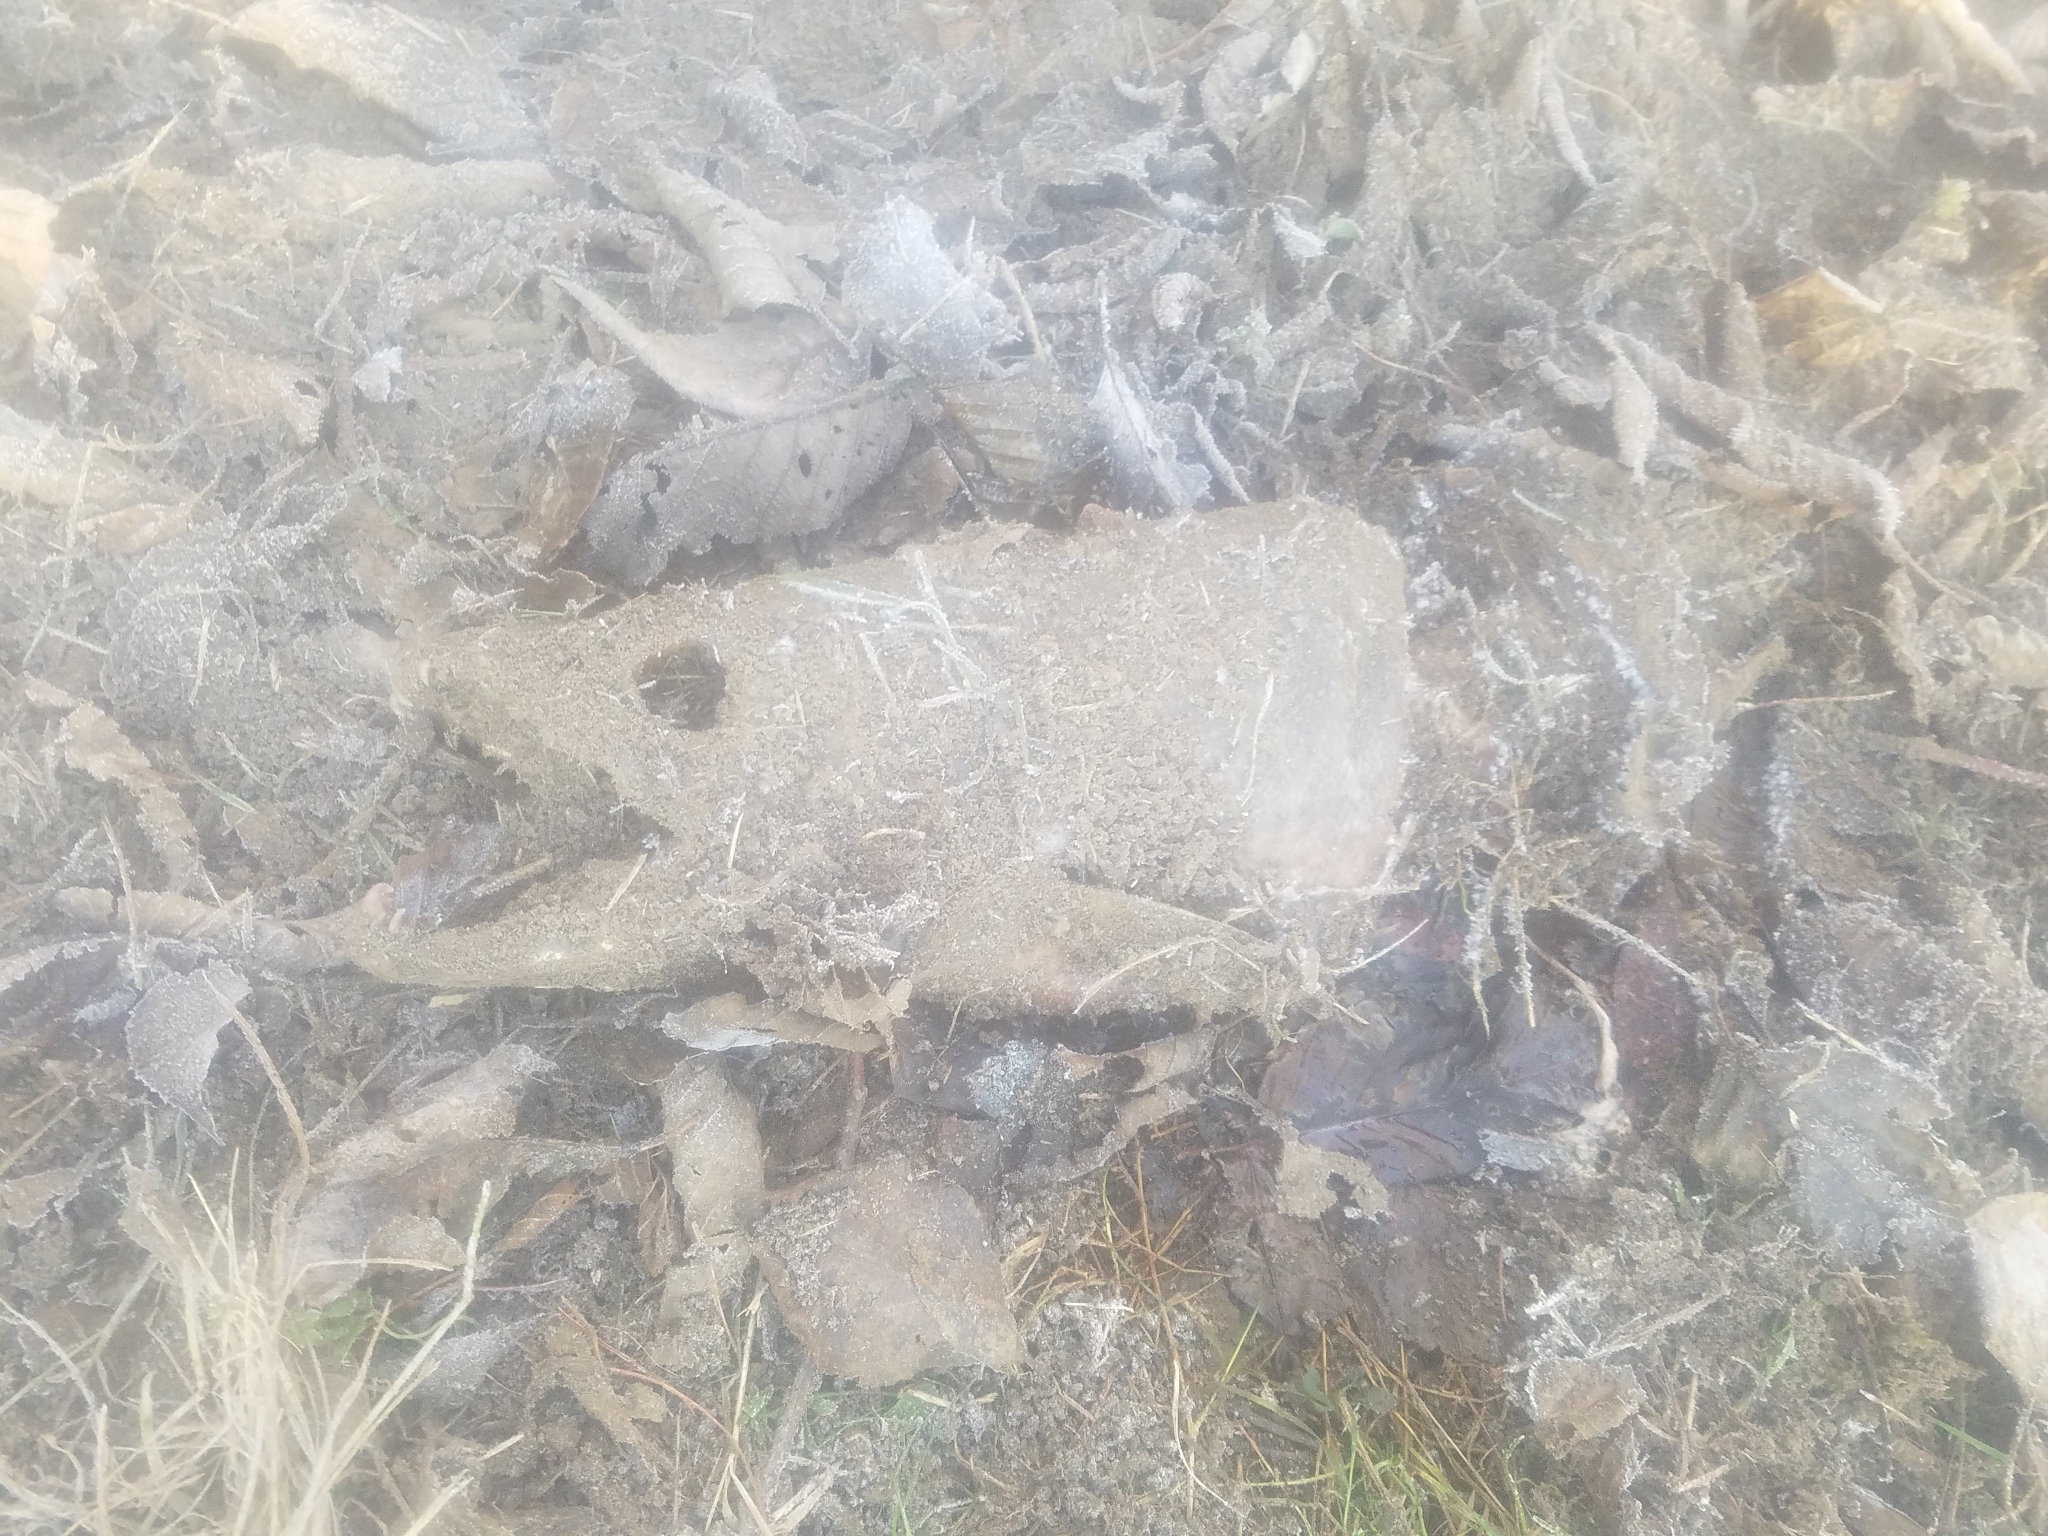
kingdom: Animalia
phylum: Chordata
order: Salmoniformes
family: Salmonidae
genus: Oncorhynchus
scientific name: Oncorhynchus keta
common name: Chum salmon
